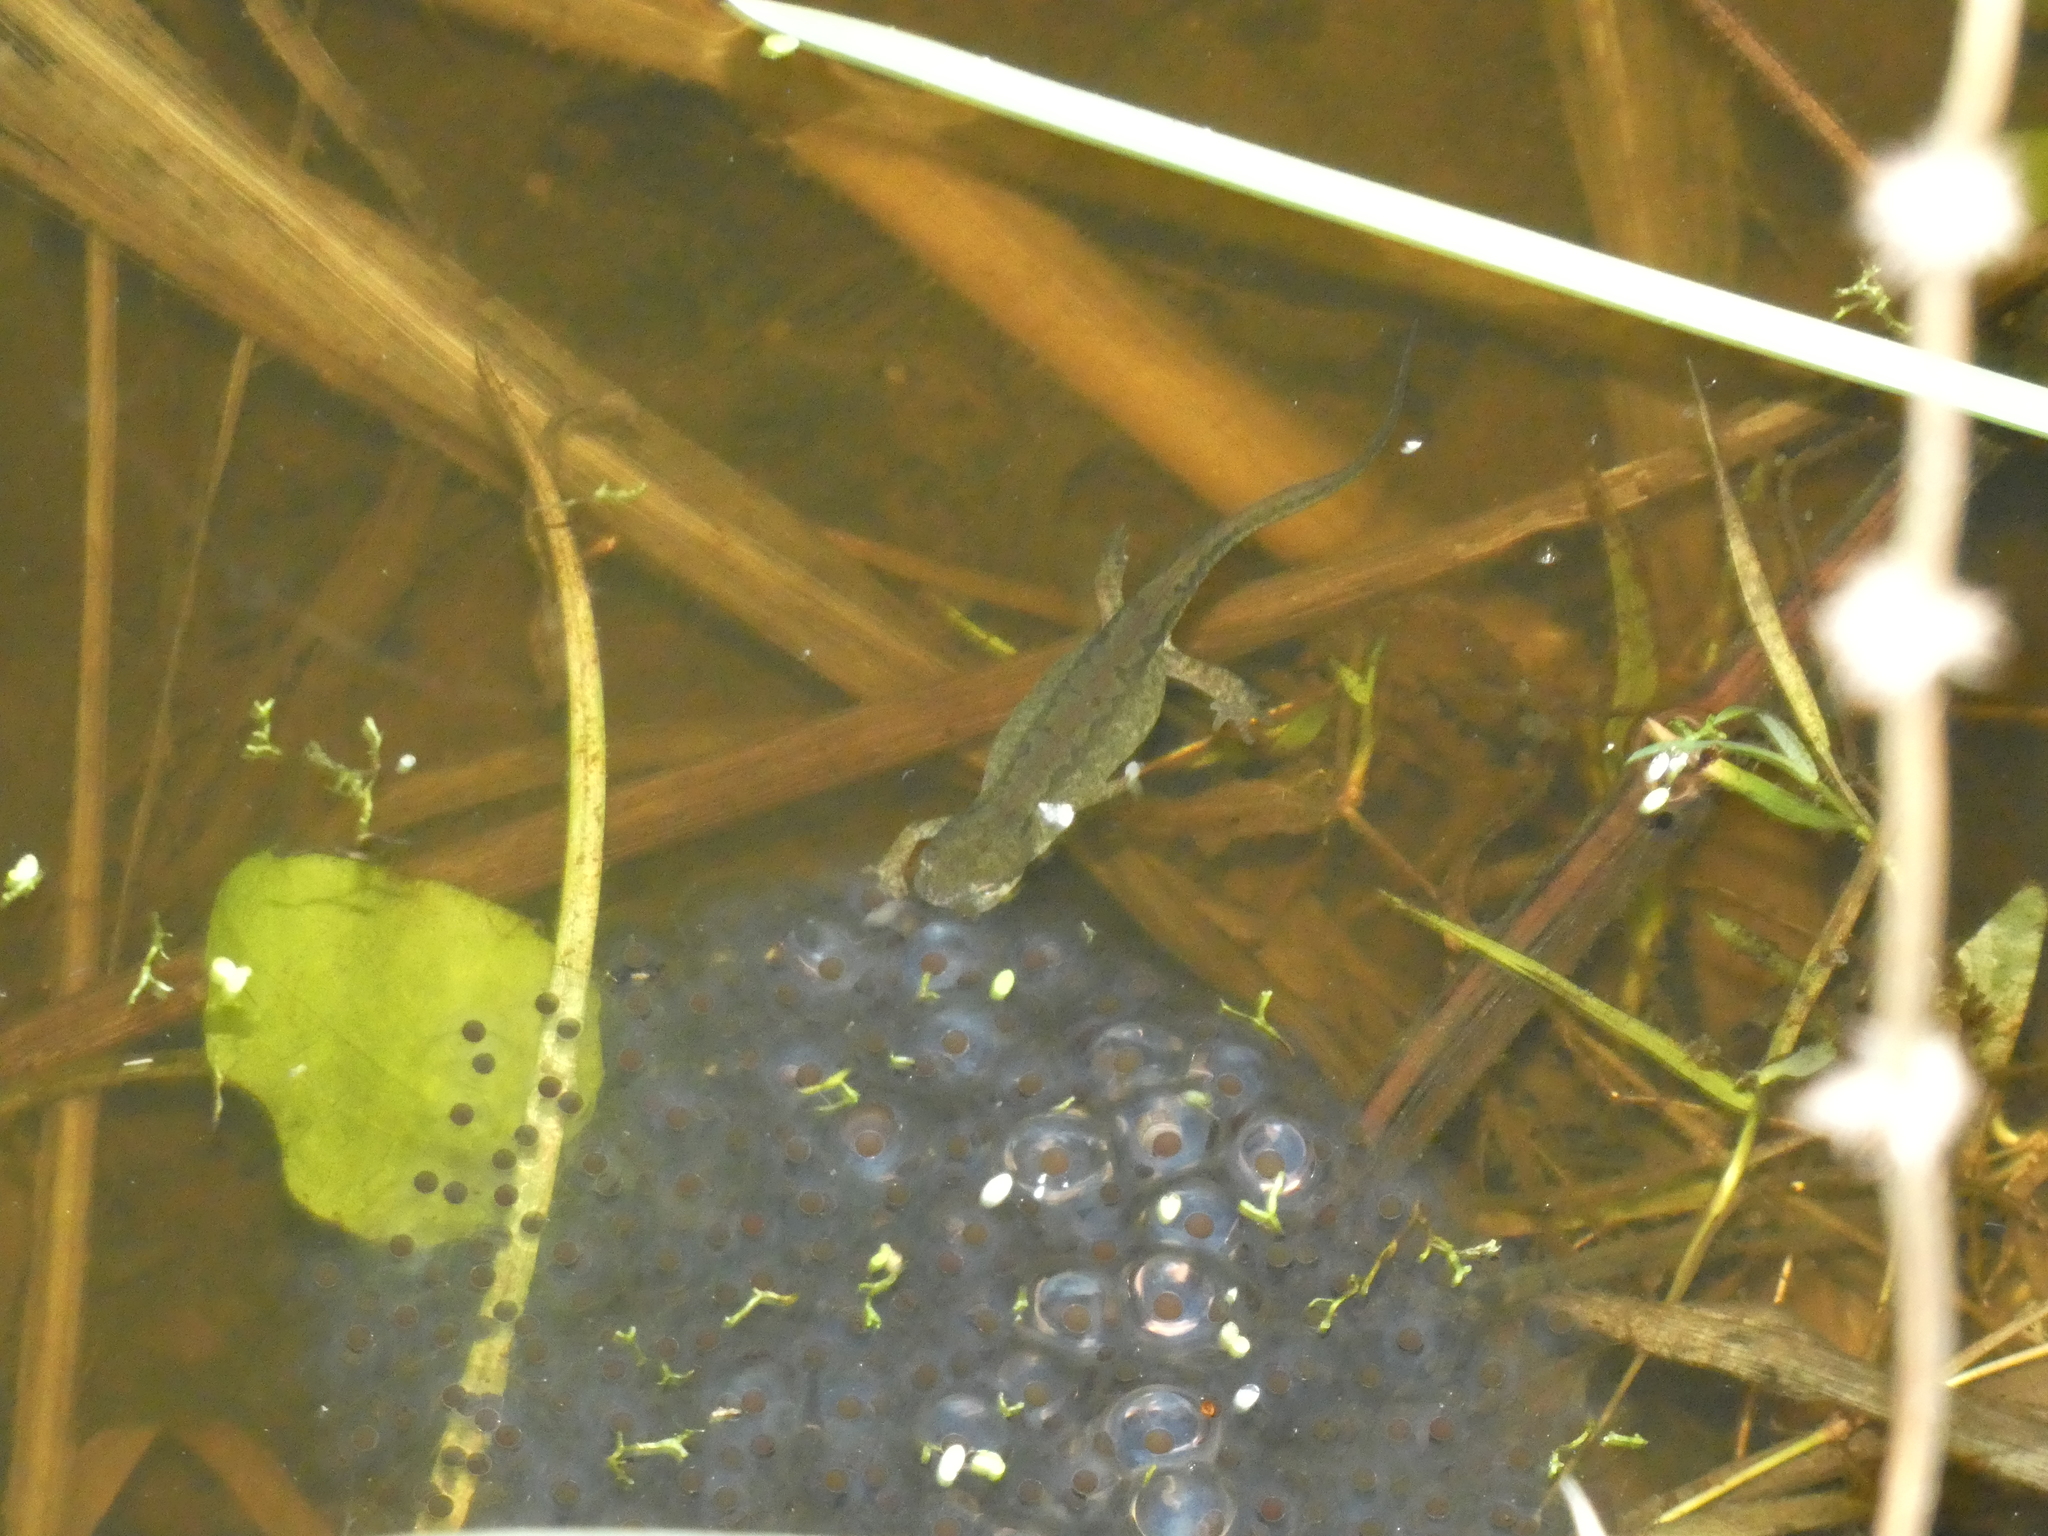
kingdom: Animalia
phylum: Chordata
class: Amphibia
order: Caudata
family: Salamandridae
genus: Lissotriton
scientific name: Lissotriton helveticus
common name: Palmate newt
